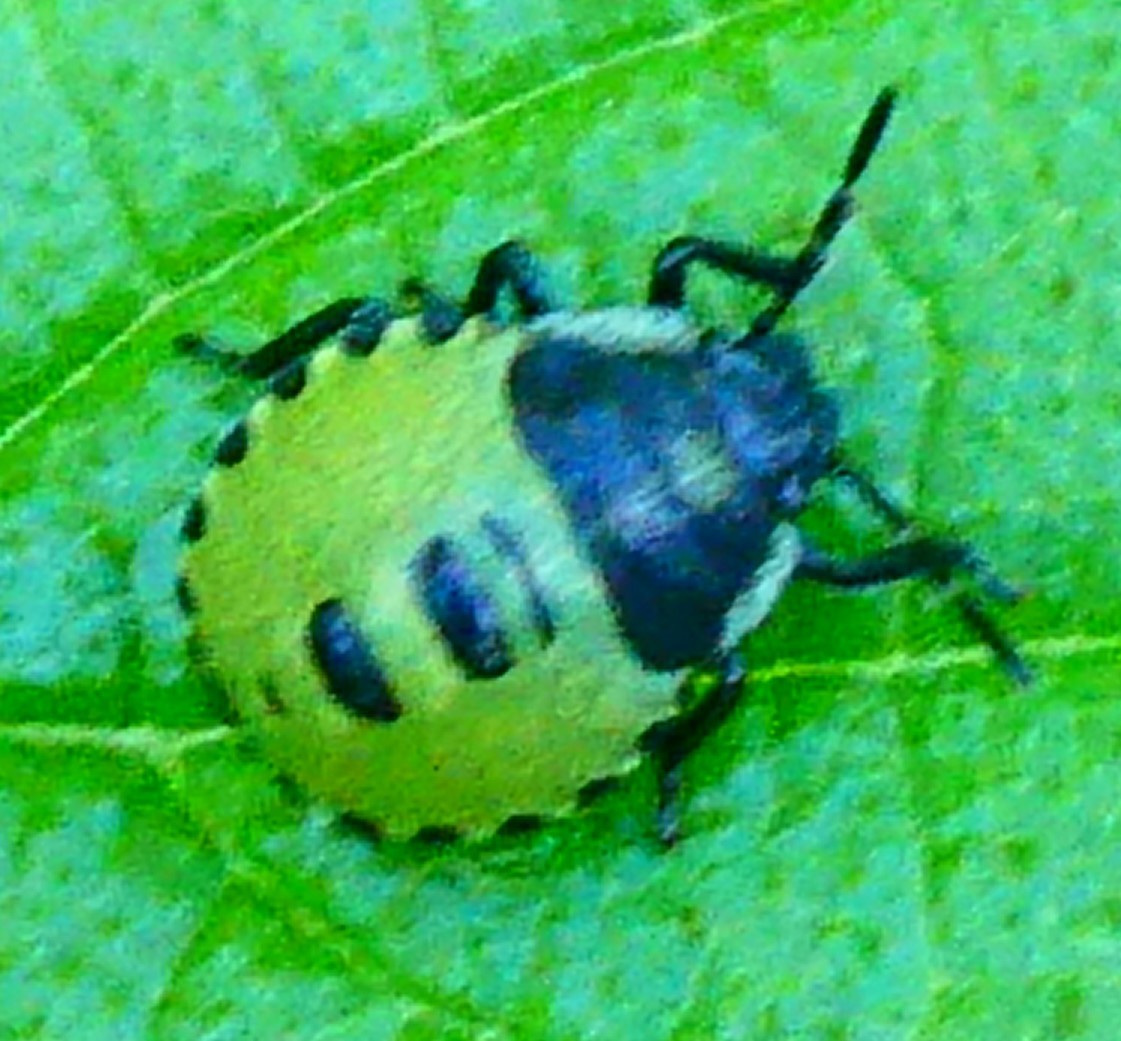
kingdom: Animalia
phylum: Arthropoda
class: Insecta
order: Hemiptera
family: Pentatomidae
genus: Palomena
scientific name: Palomena prasina
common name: Green shieldbug
